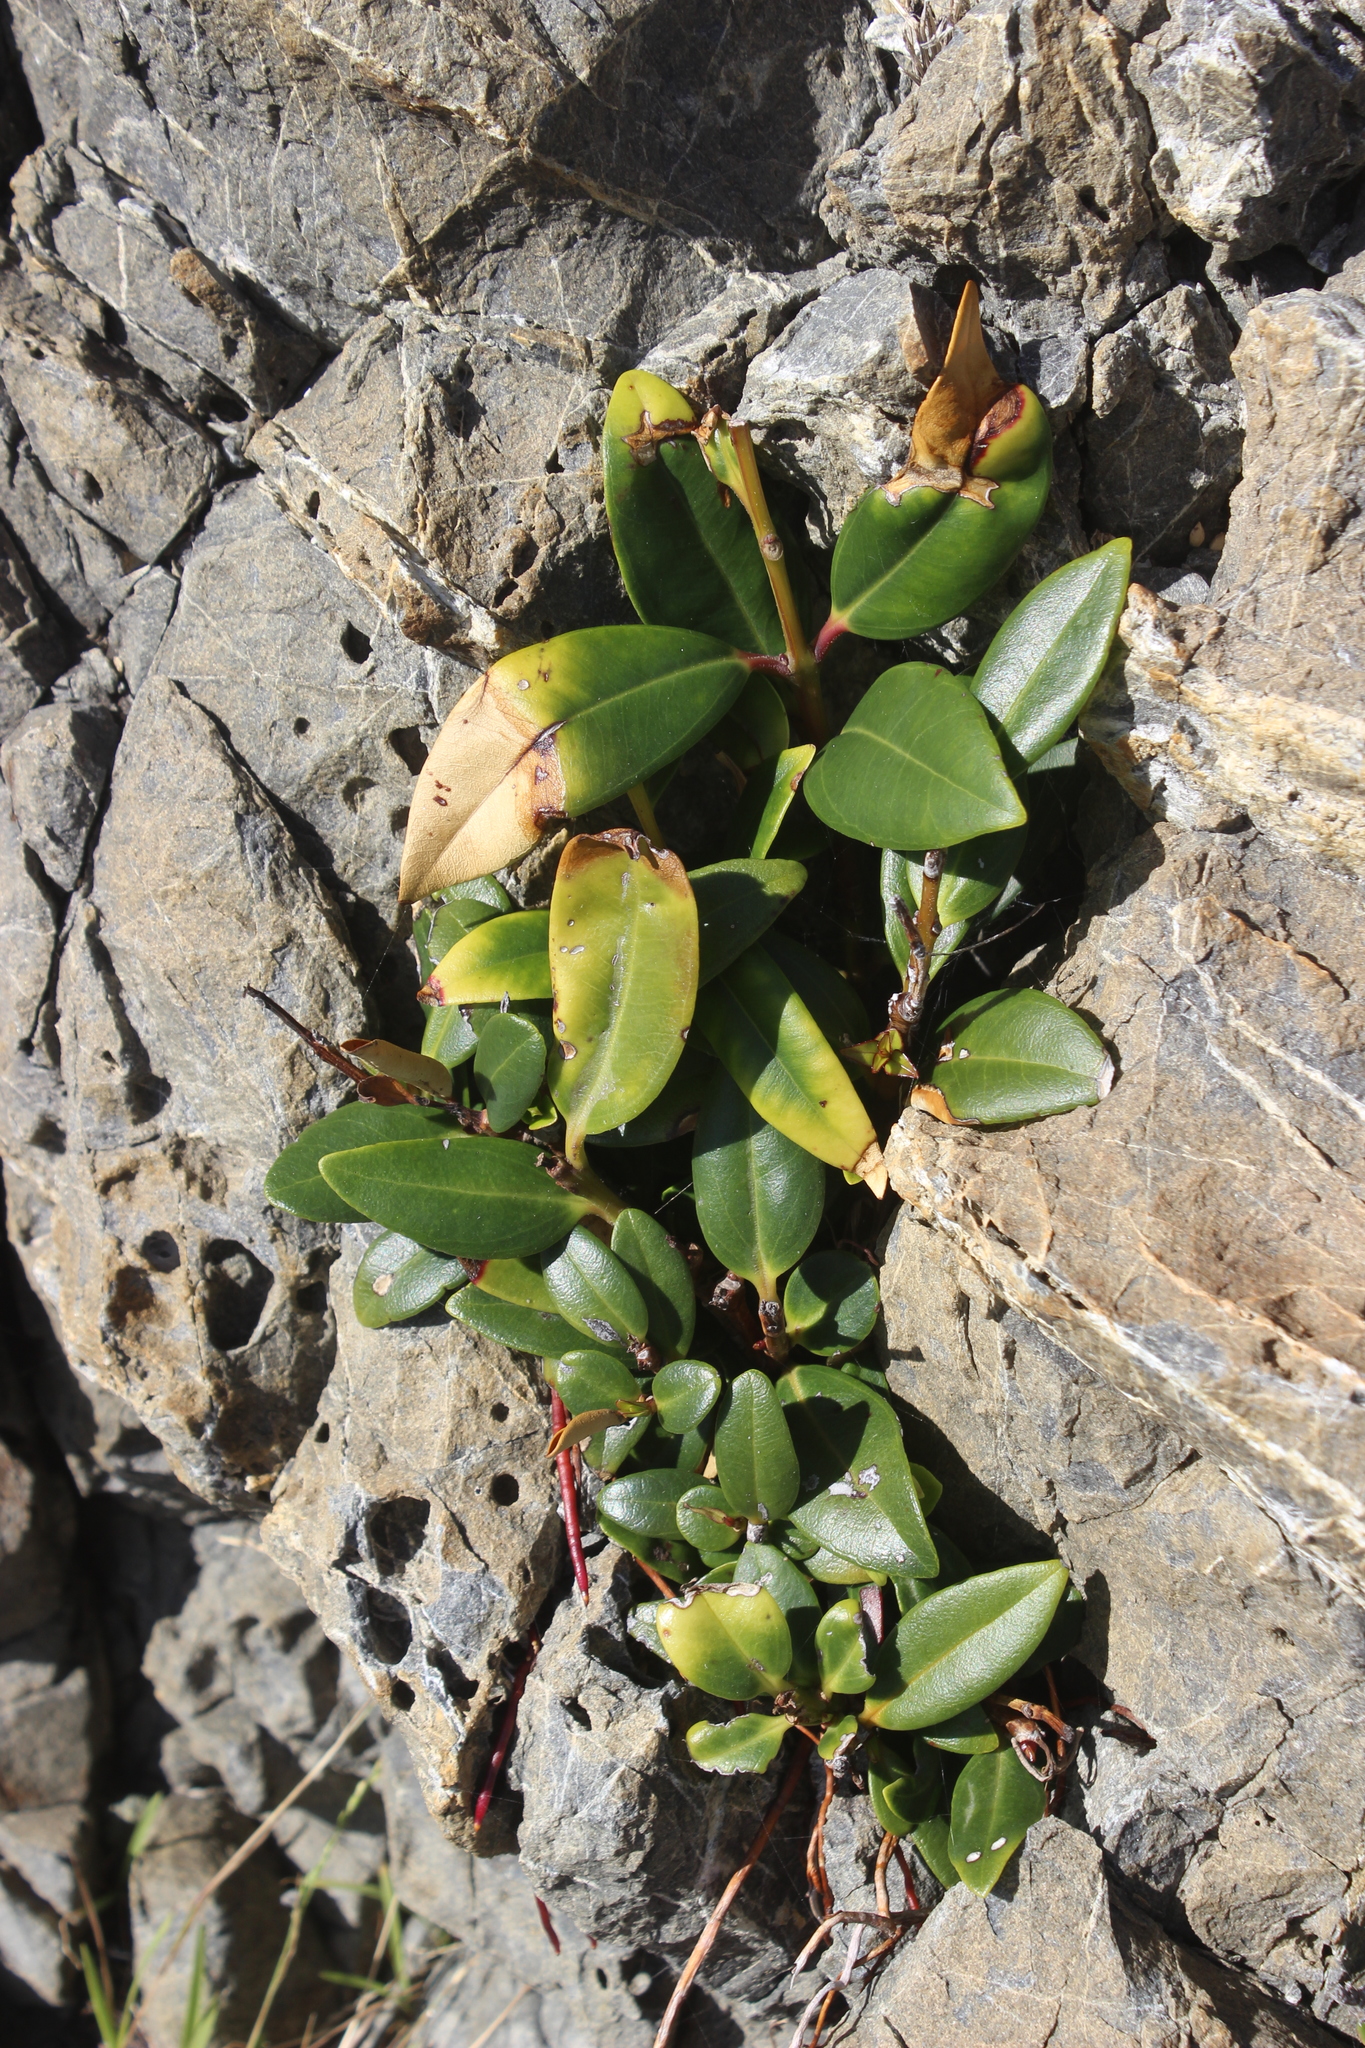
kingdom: Plantae
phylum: Tracheophyta
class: Magnoliopsida
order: Myrtales
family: Myrtaceae
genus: Metrosideros
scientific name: Metrosideros excelsa
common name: New zealand christmastree
